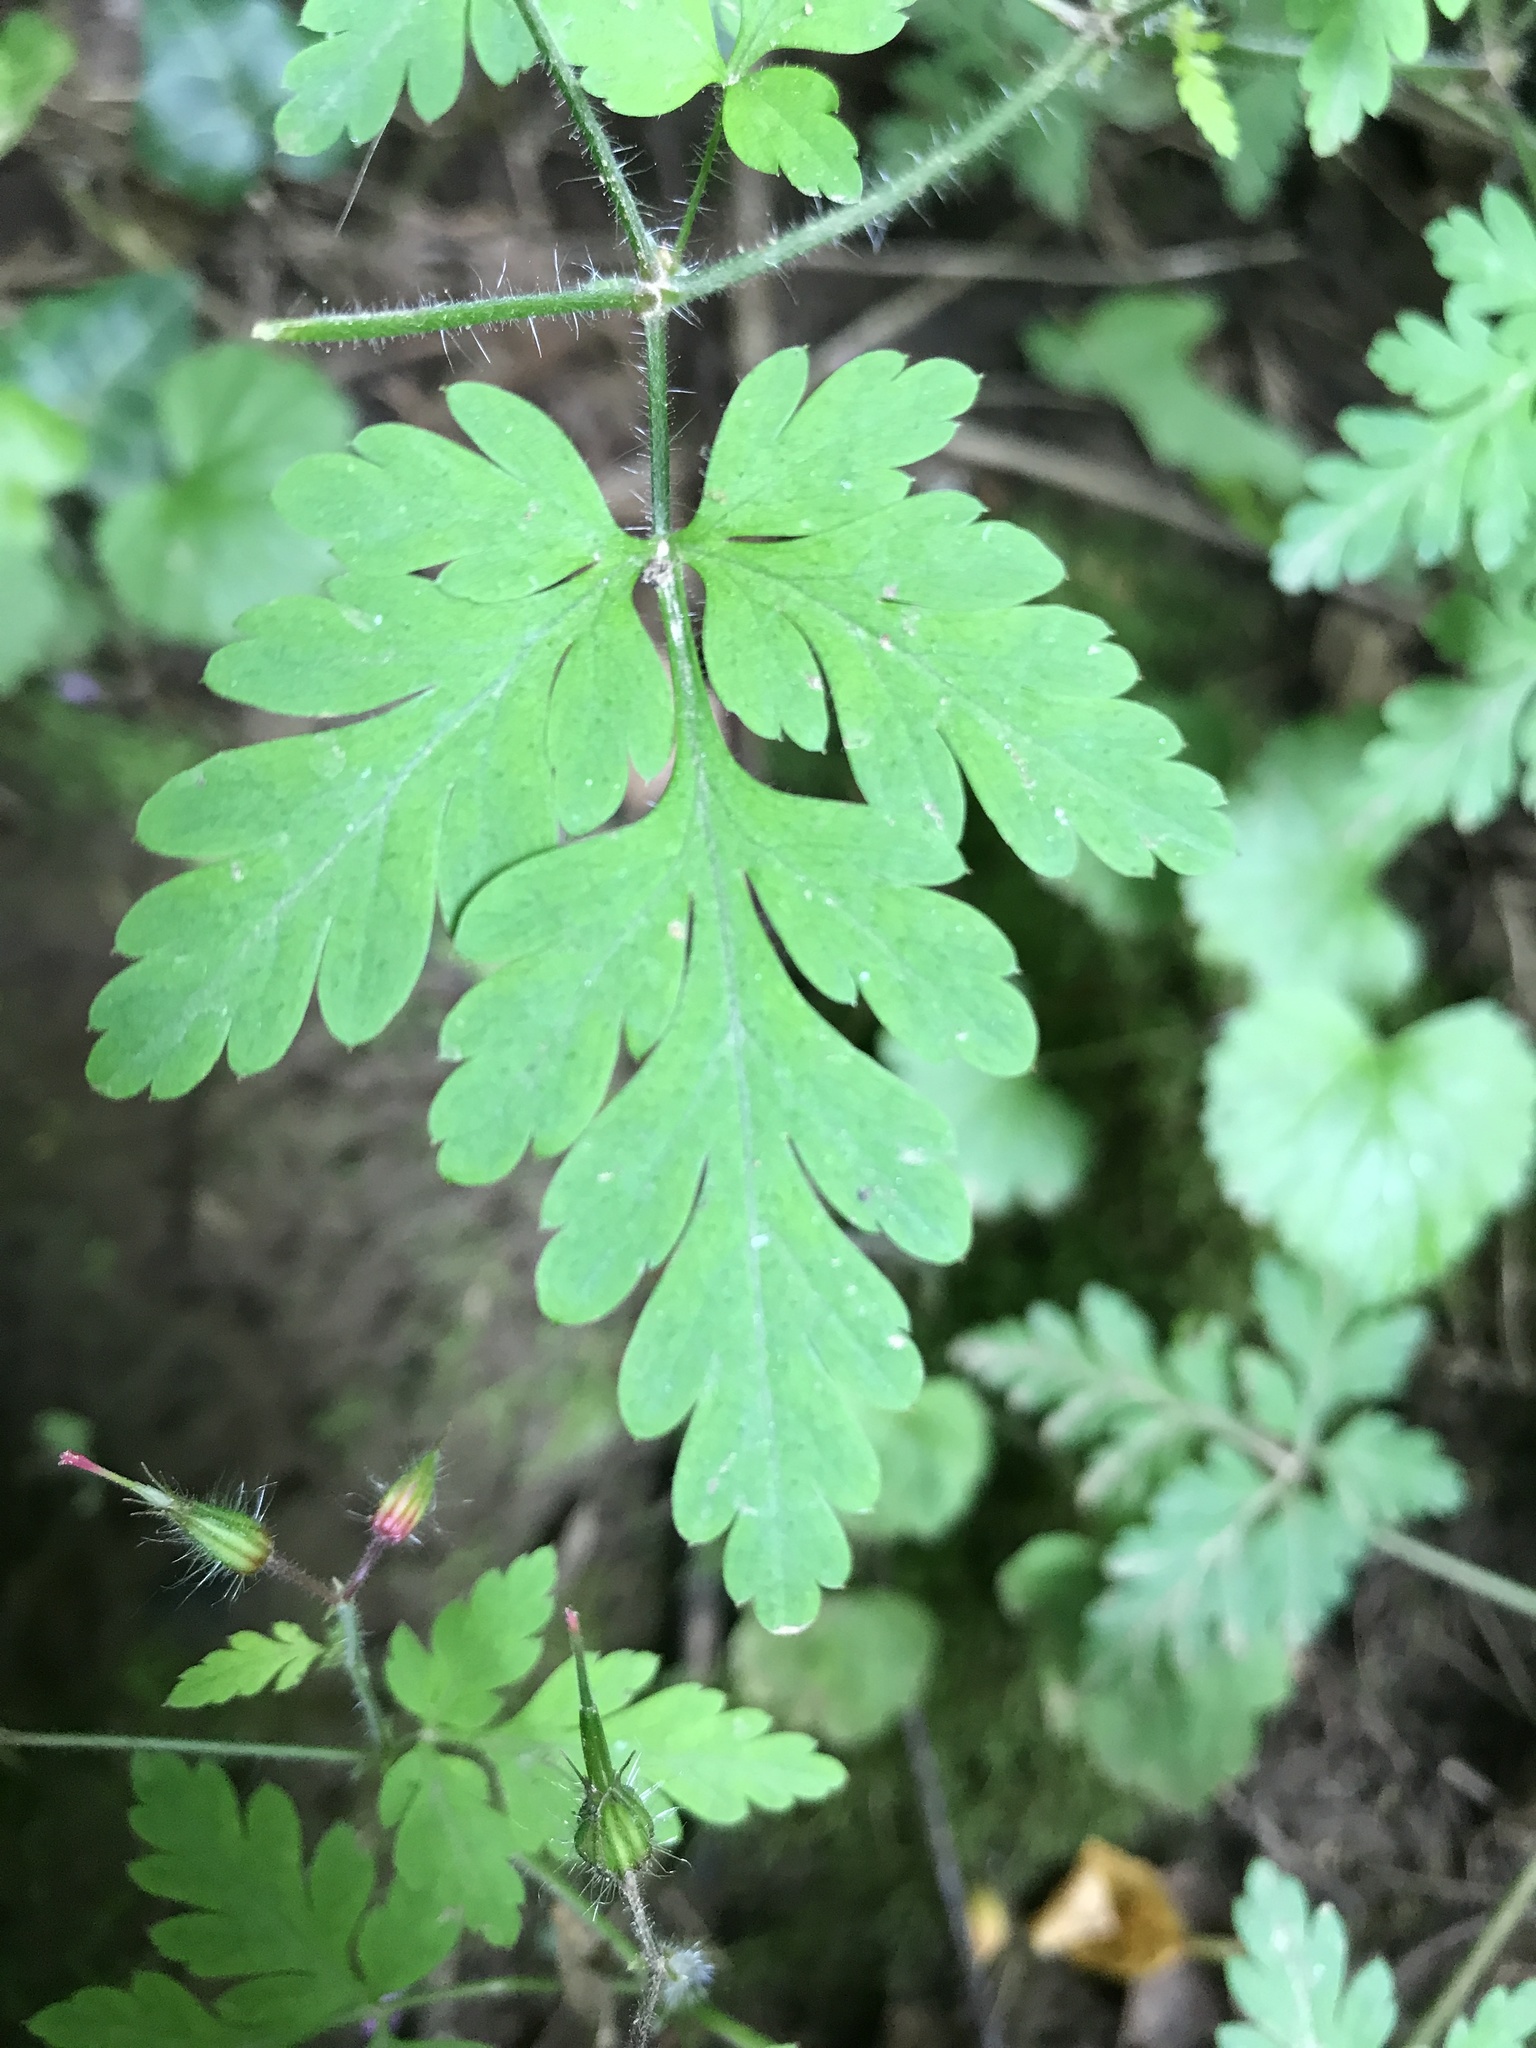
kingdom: Plantae
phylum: Tracheophyta
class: Magnoliopsida
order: Geraniales
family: Geraniaceae
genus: Geranium
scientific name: Geranium robertianum
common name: Herb-robert
